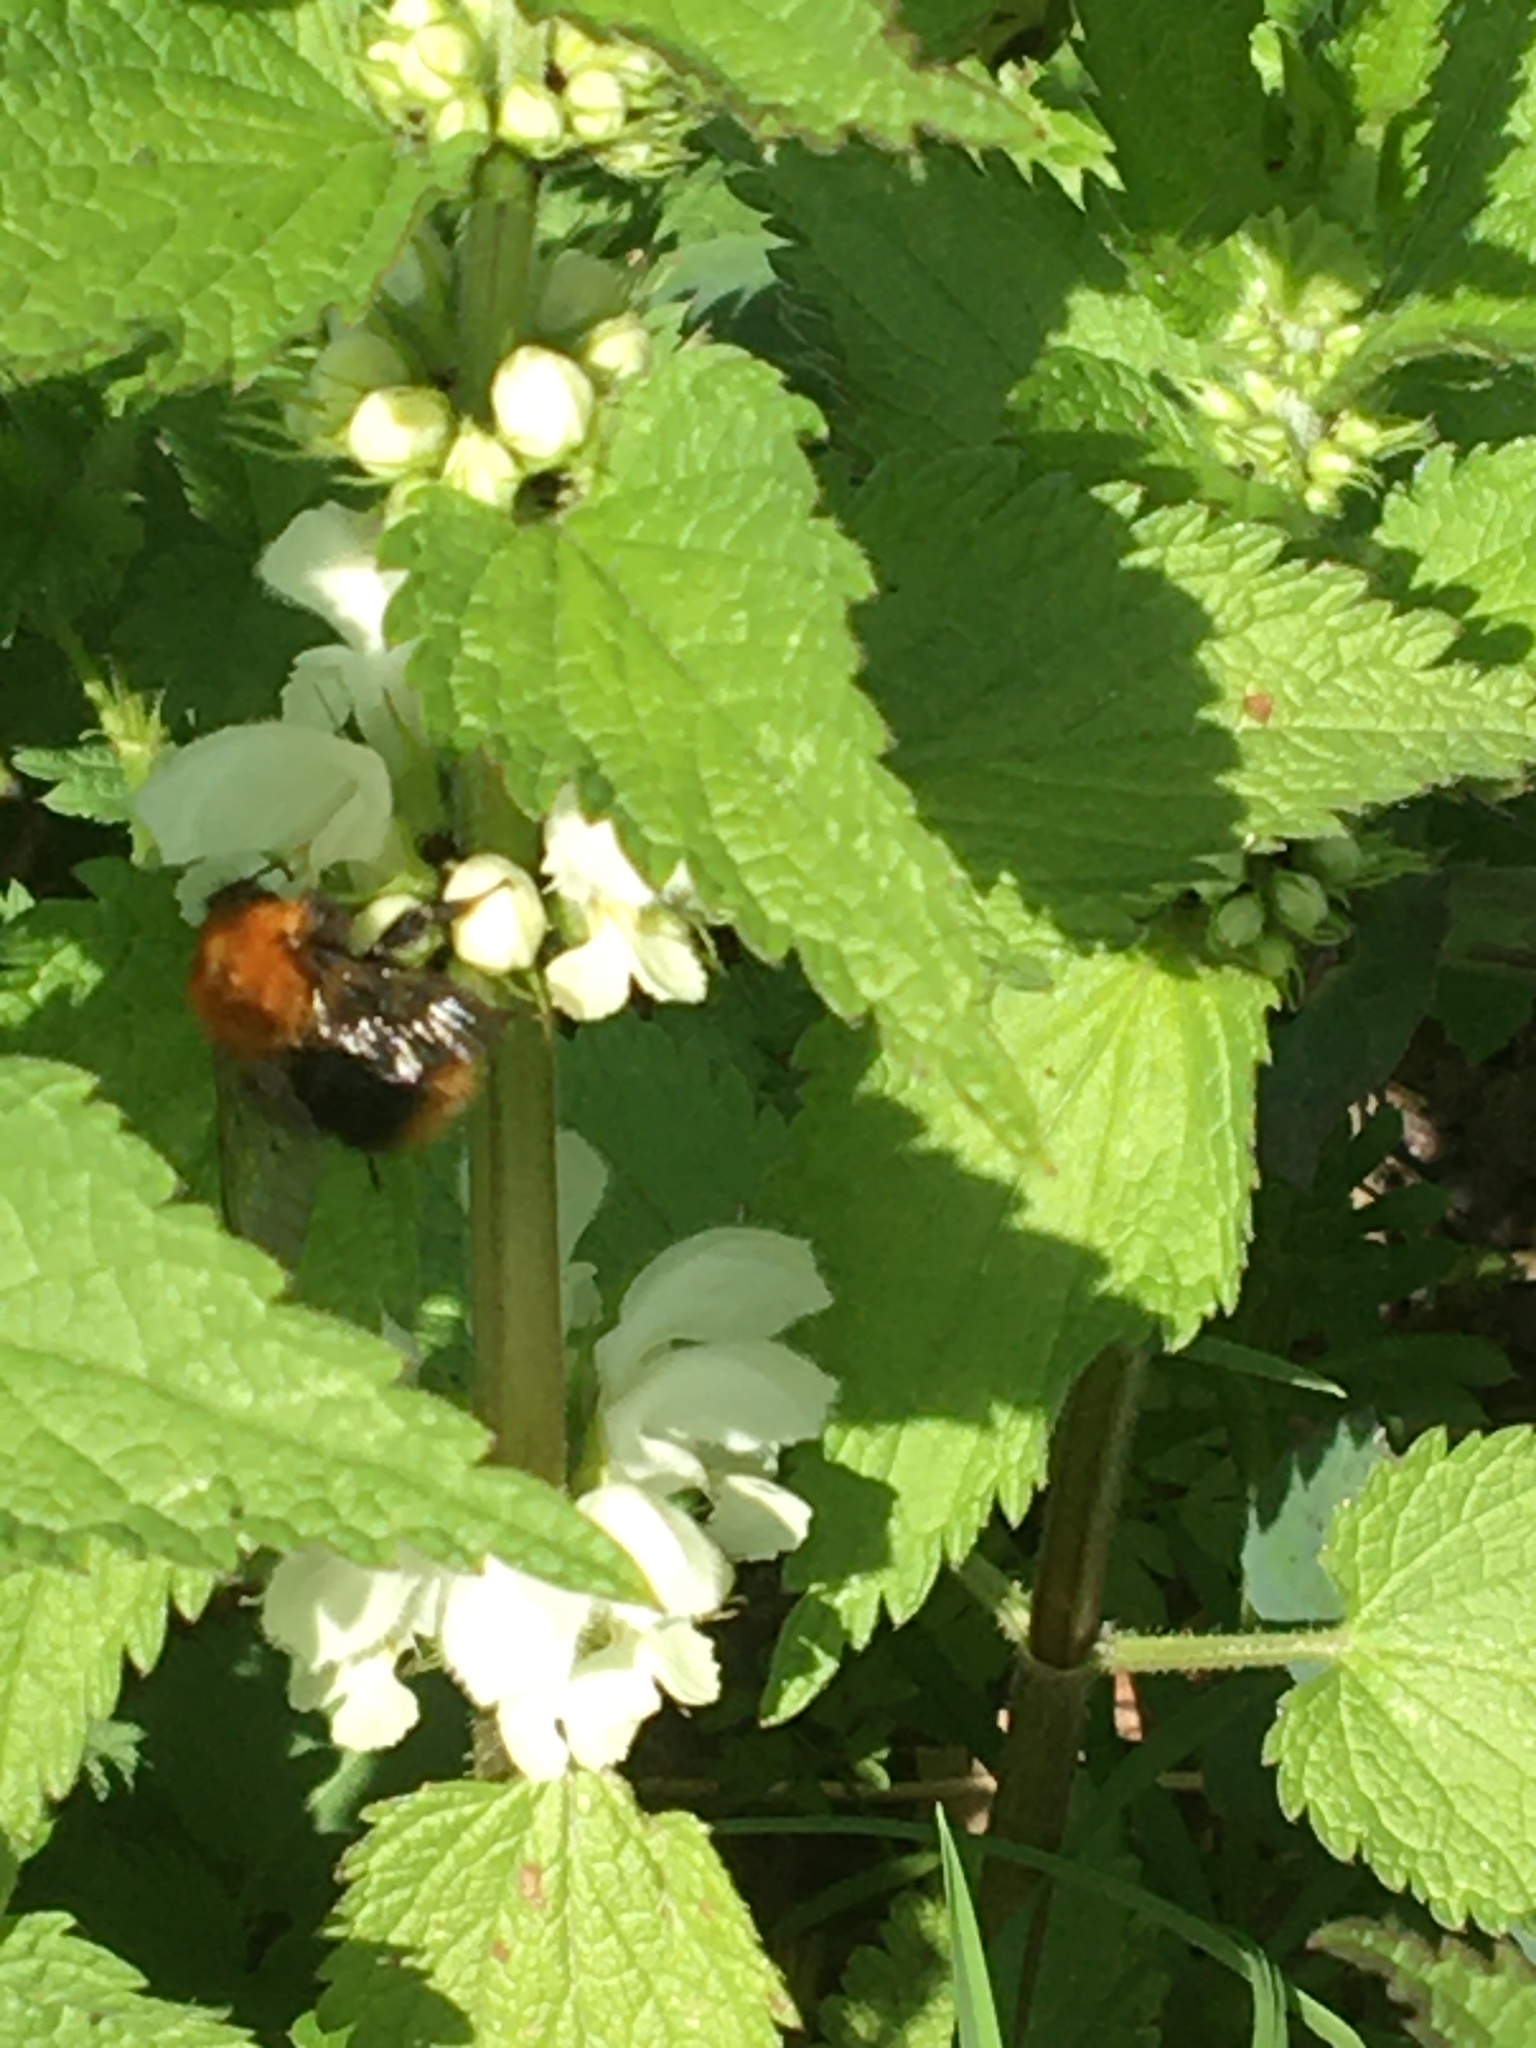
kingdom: Animalia
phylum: Arthropoda
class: Insecta
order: Hymenoptera
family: Apidae
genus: Bombus
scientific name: Bombus pascuorum
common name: Common carder bee
